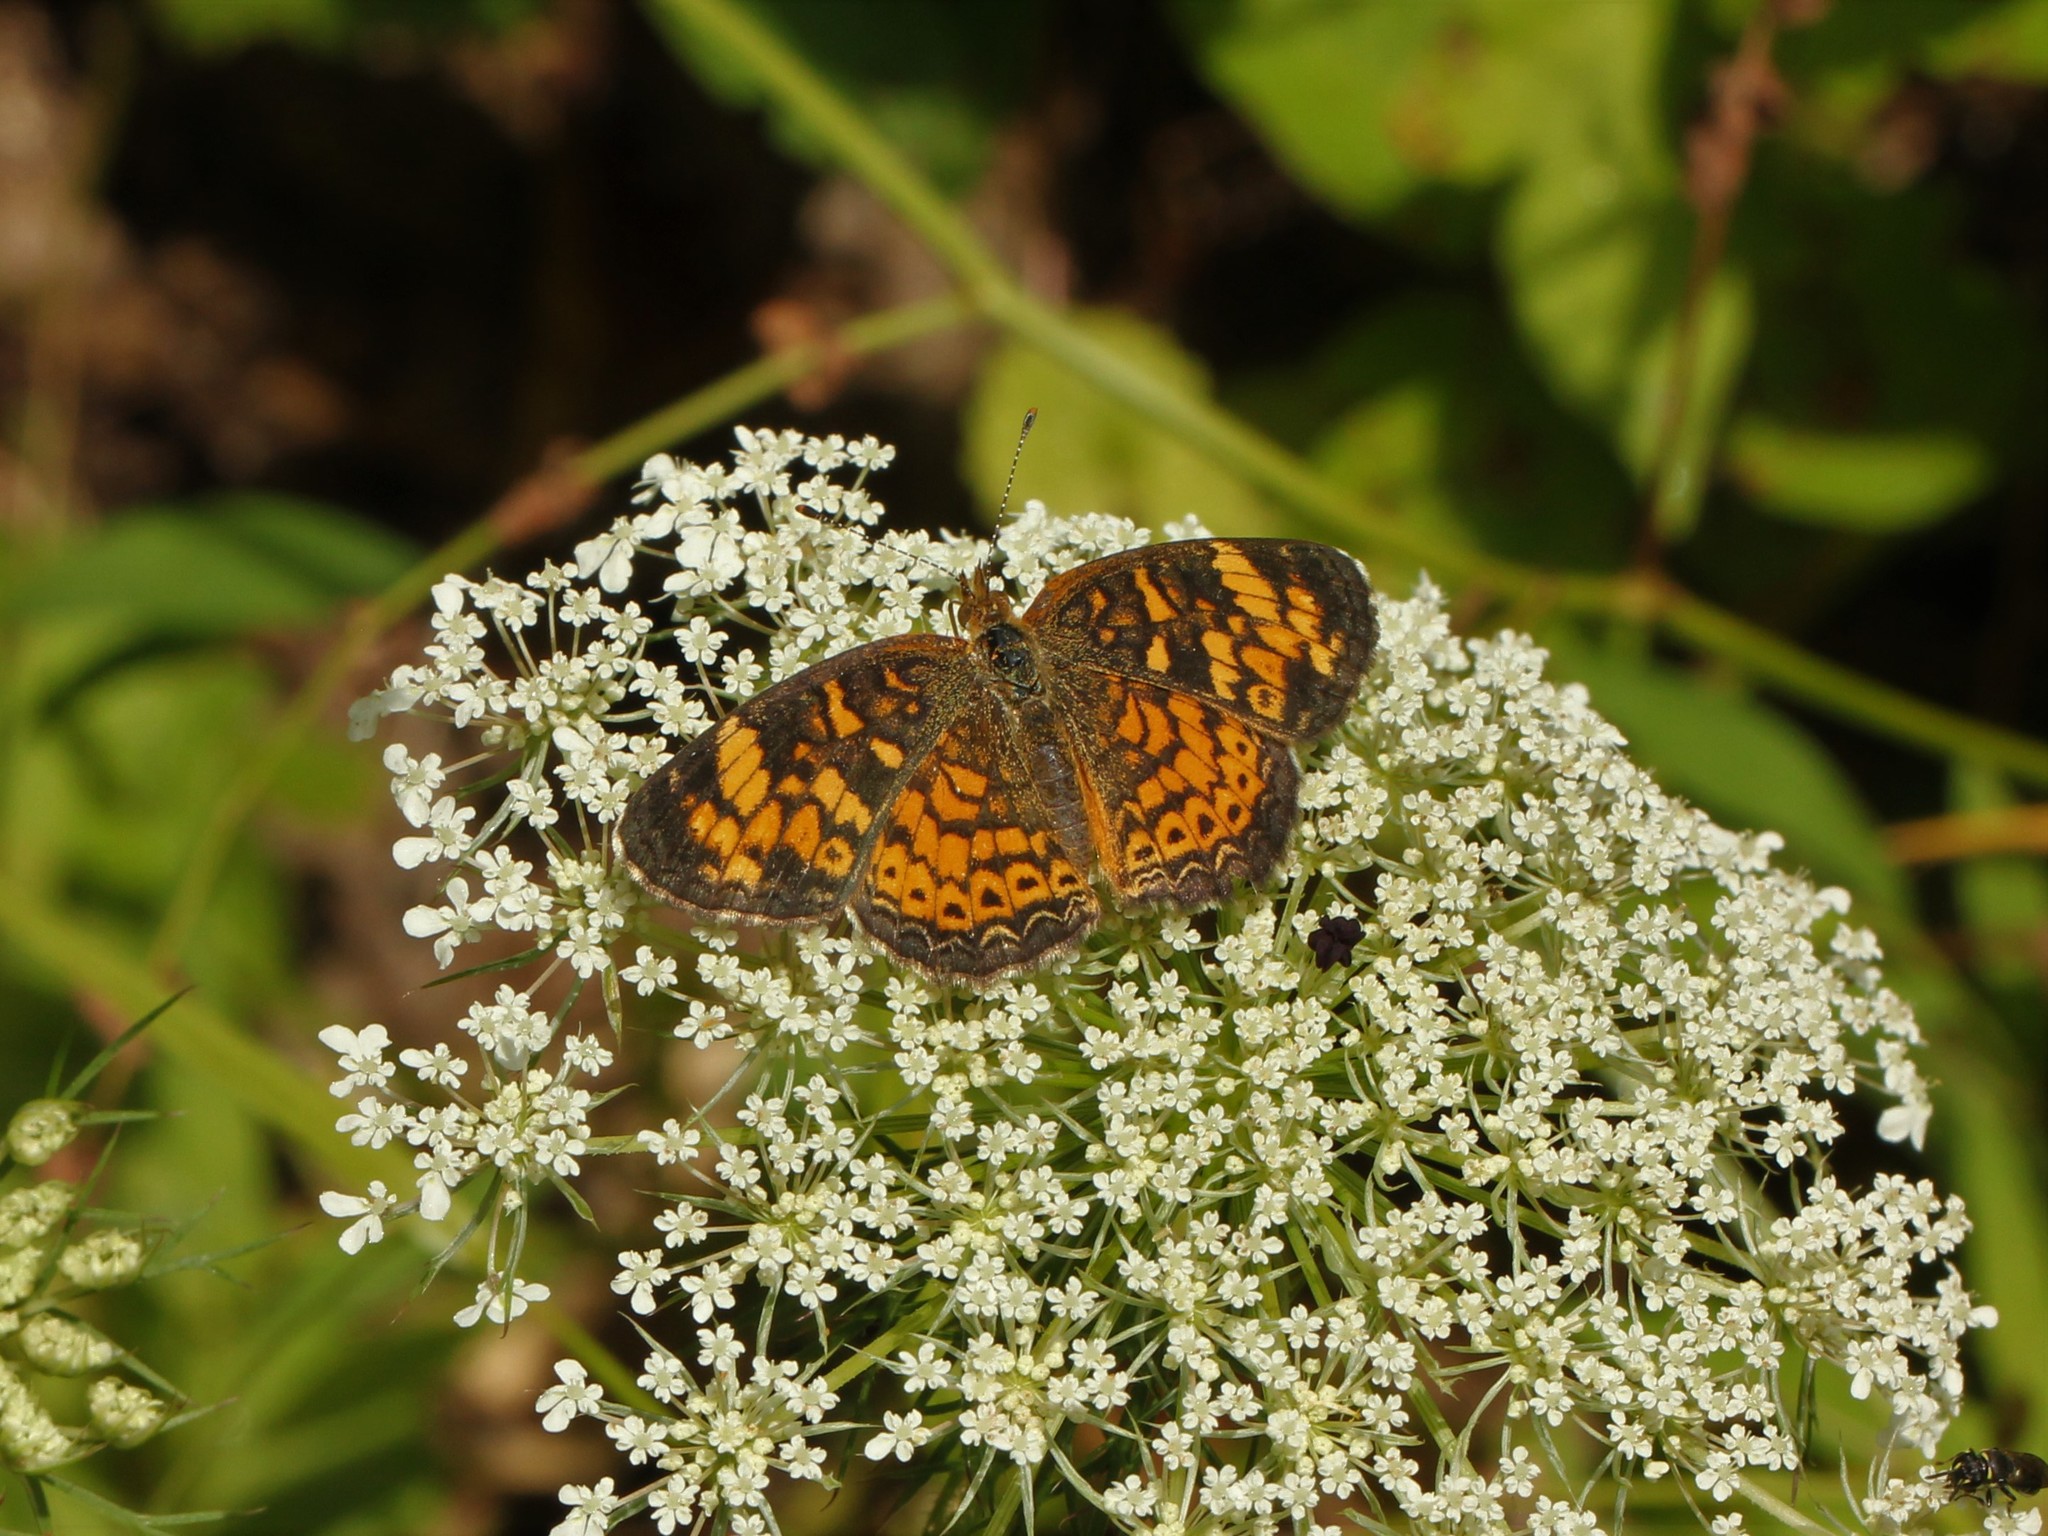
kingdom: Animalia
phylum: Arthropoda
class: Insecta
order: Lepidoptera
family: Nymphalidae
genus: Phyciodes
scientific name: Phyciodes tharos
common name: Pearl crescent
